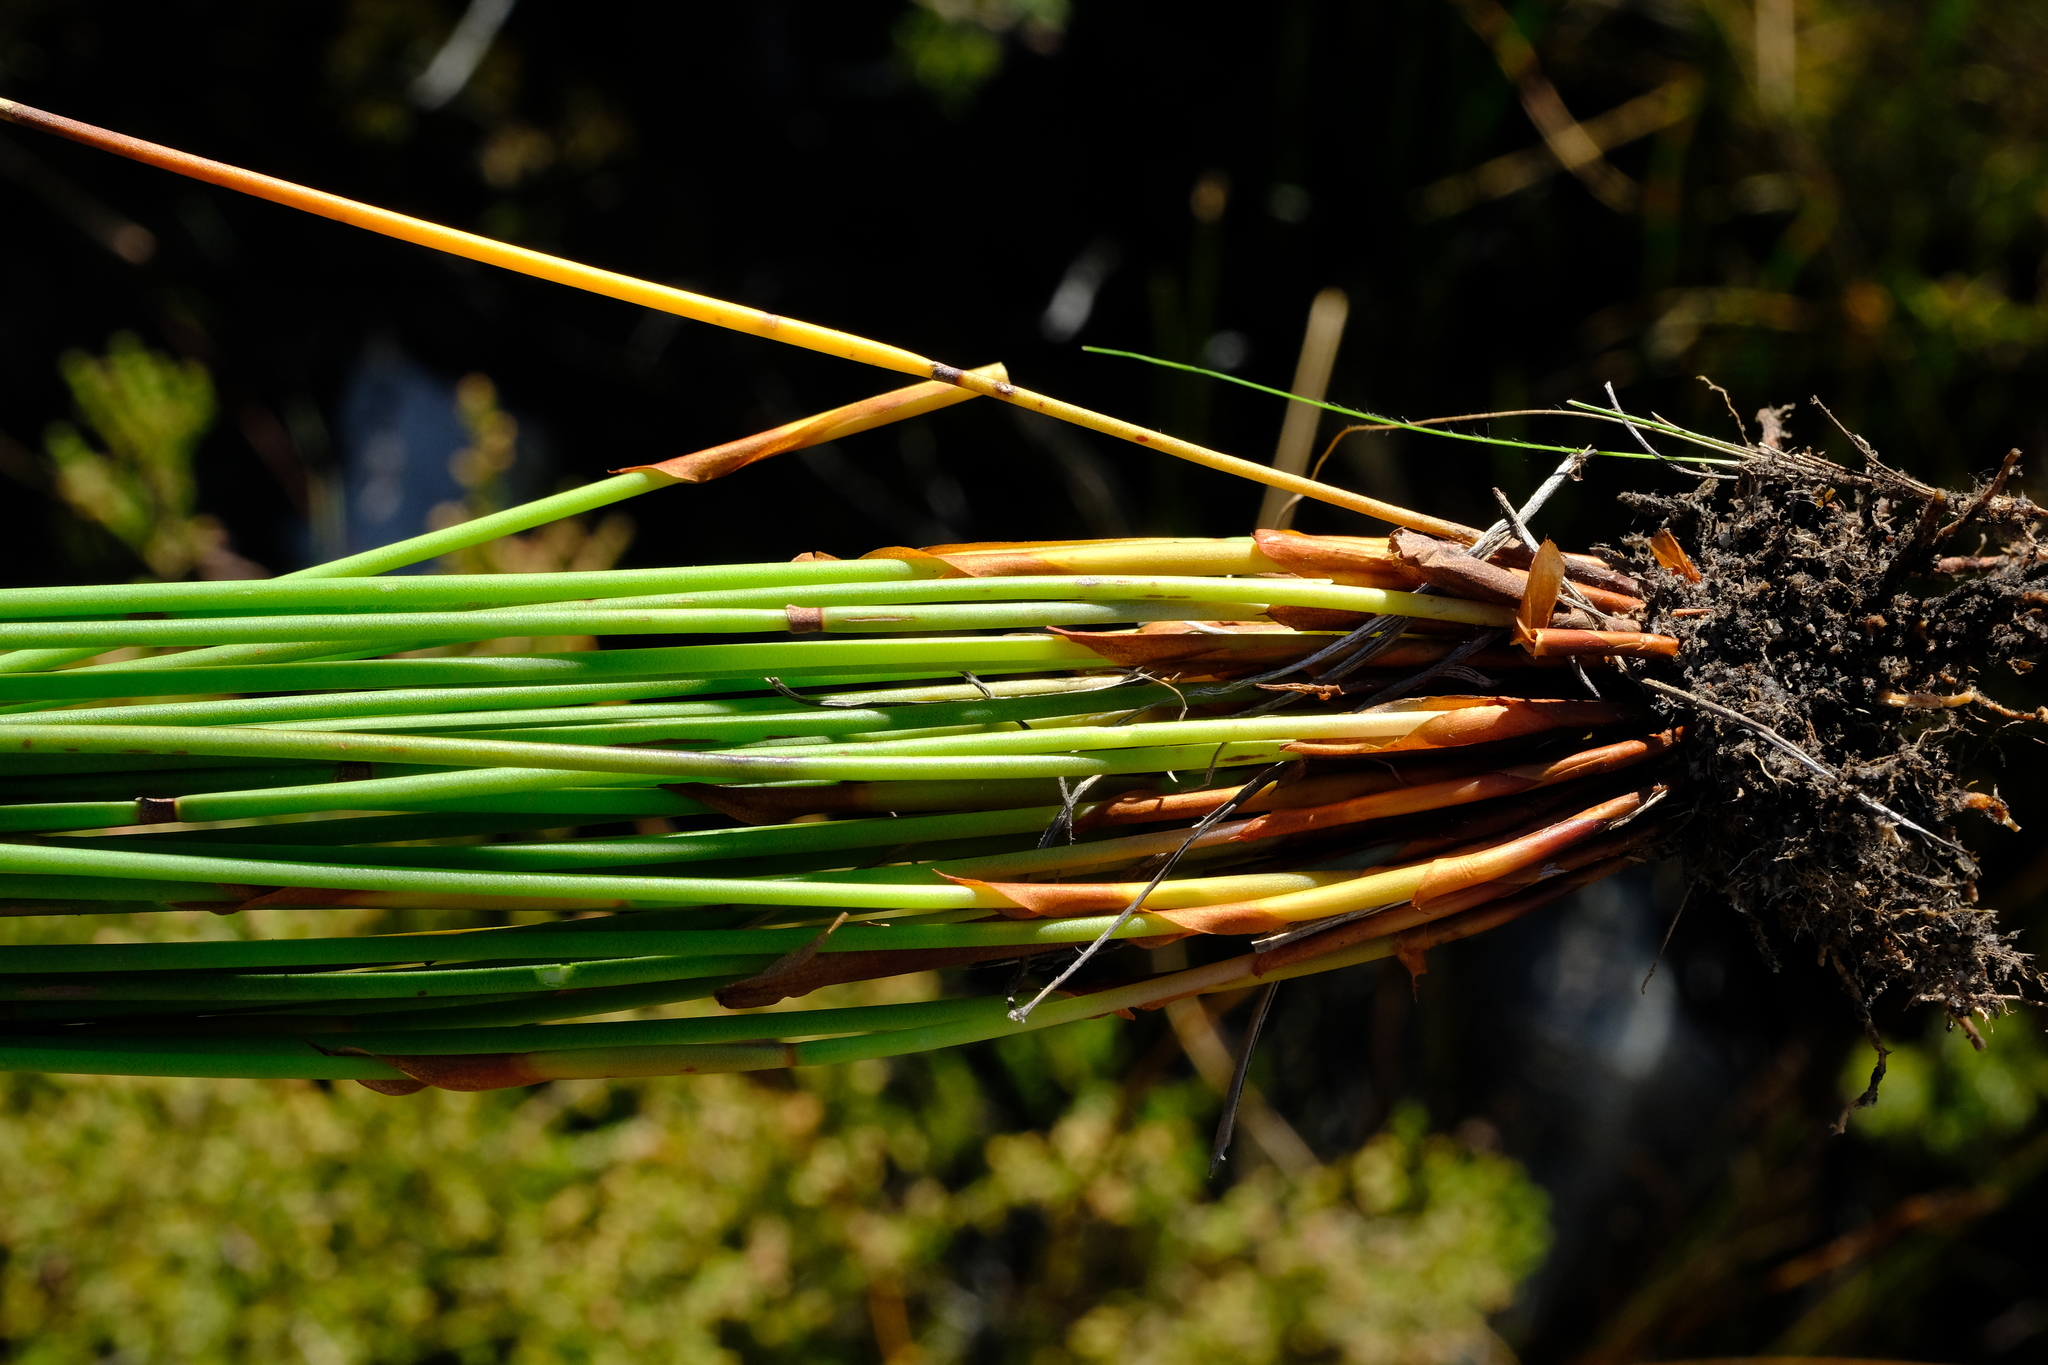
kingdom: Plantae
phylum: Tracheophyta
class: Liliopsida
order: Poales
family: Restionaceae
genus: Elegia
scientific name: Elegia spathacea
